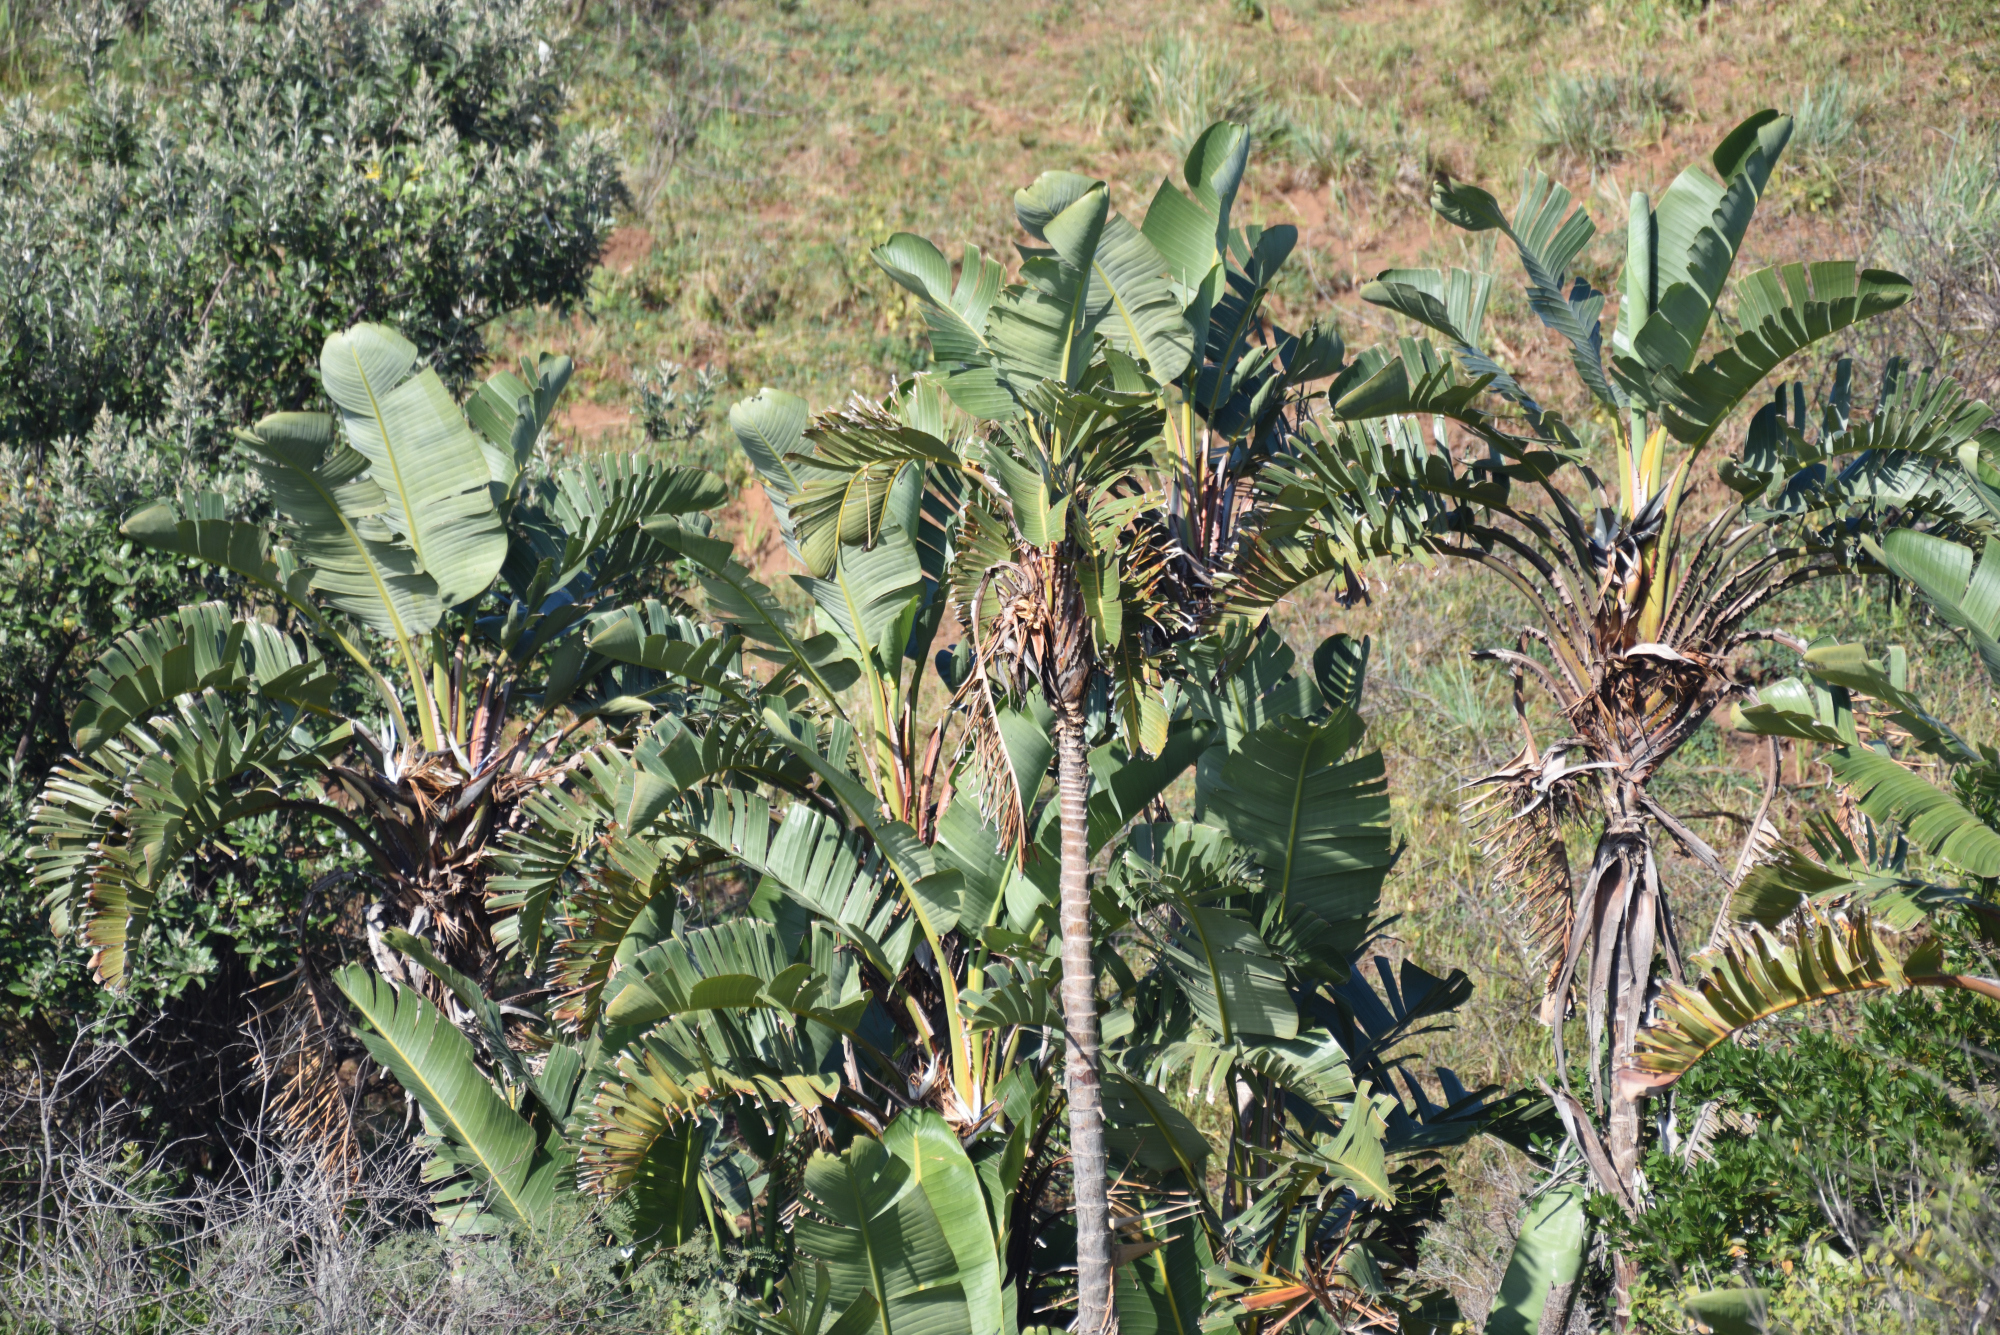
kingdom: Plantae
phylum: Tracheophyta
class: Liliopsida
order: Zingiberales
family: Strelitziaceae
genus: Strelitzia
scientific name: Strelitzia nicolai
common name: Bird-of-paradise tree
